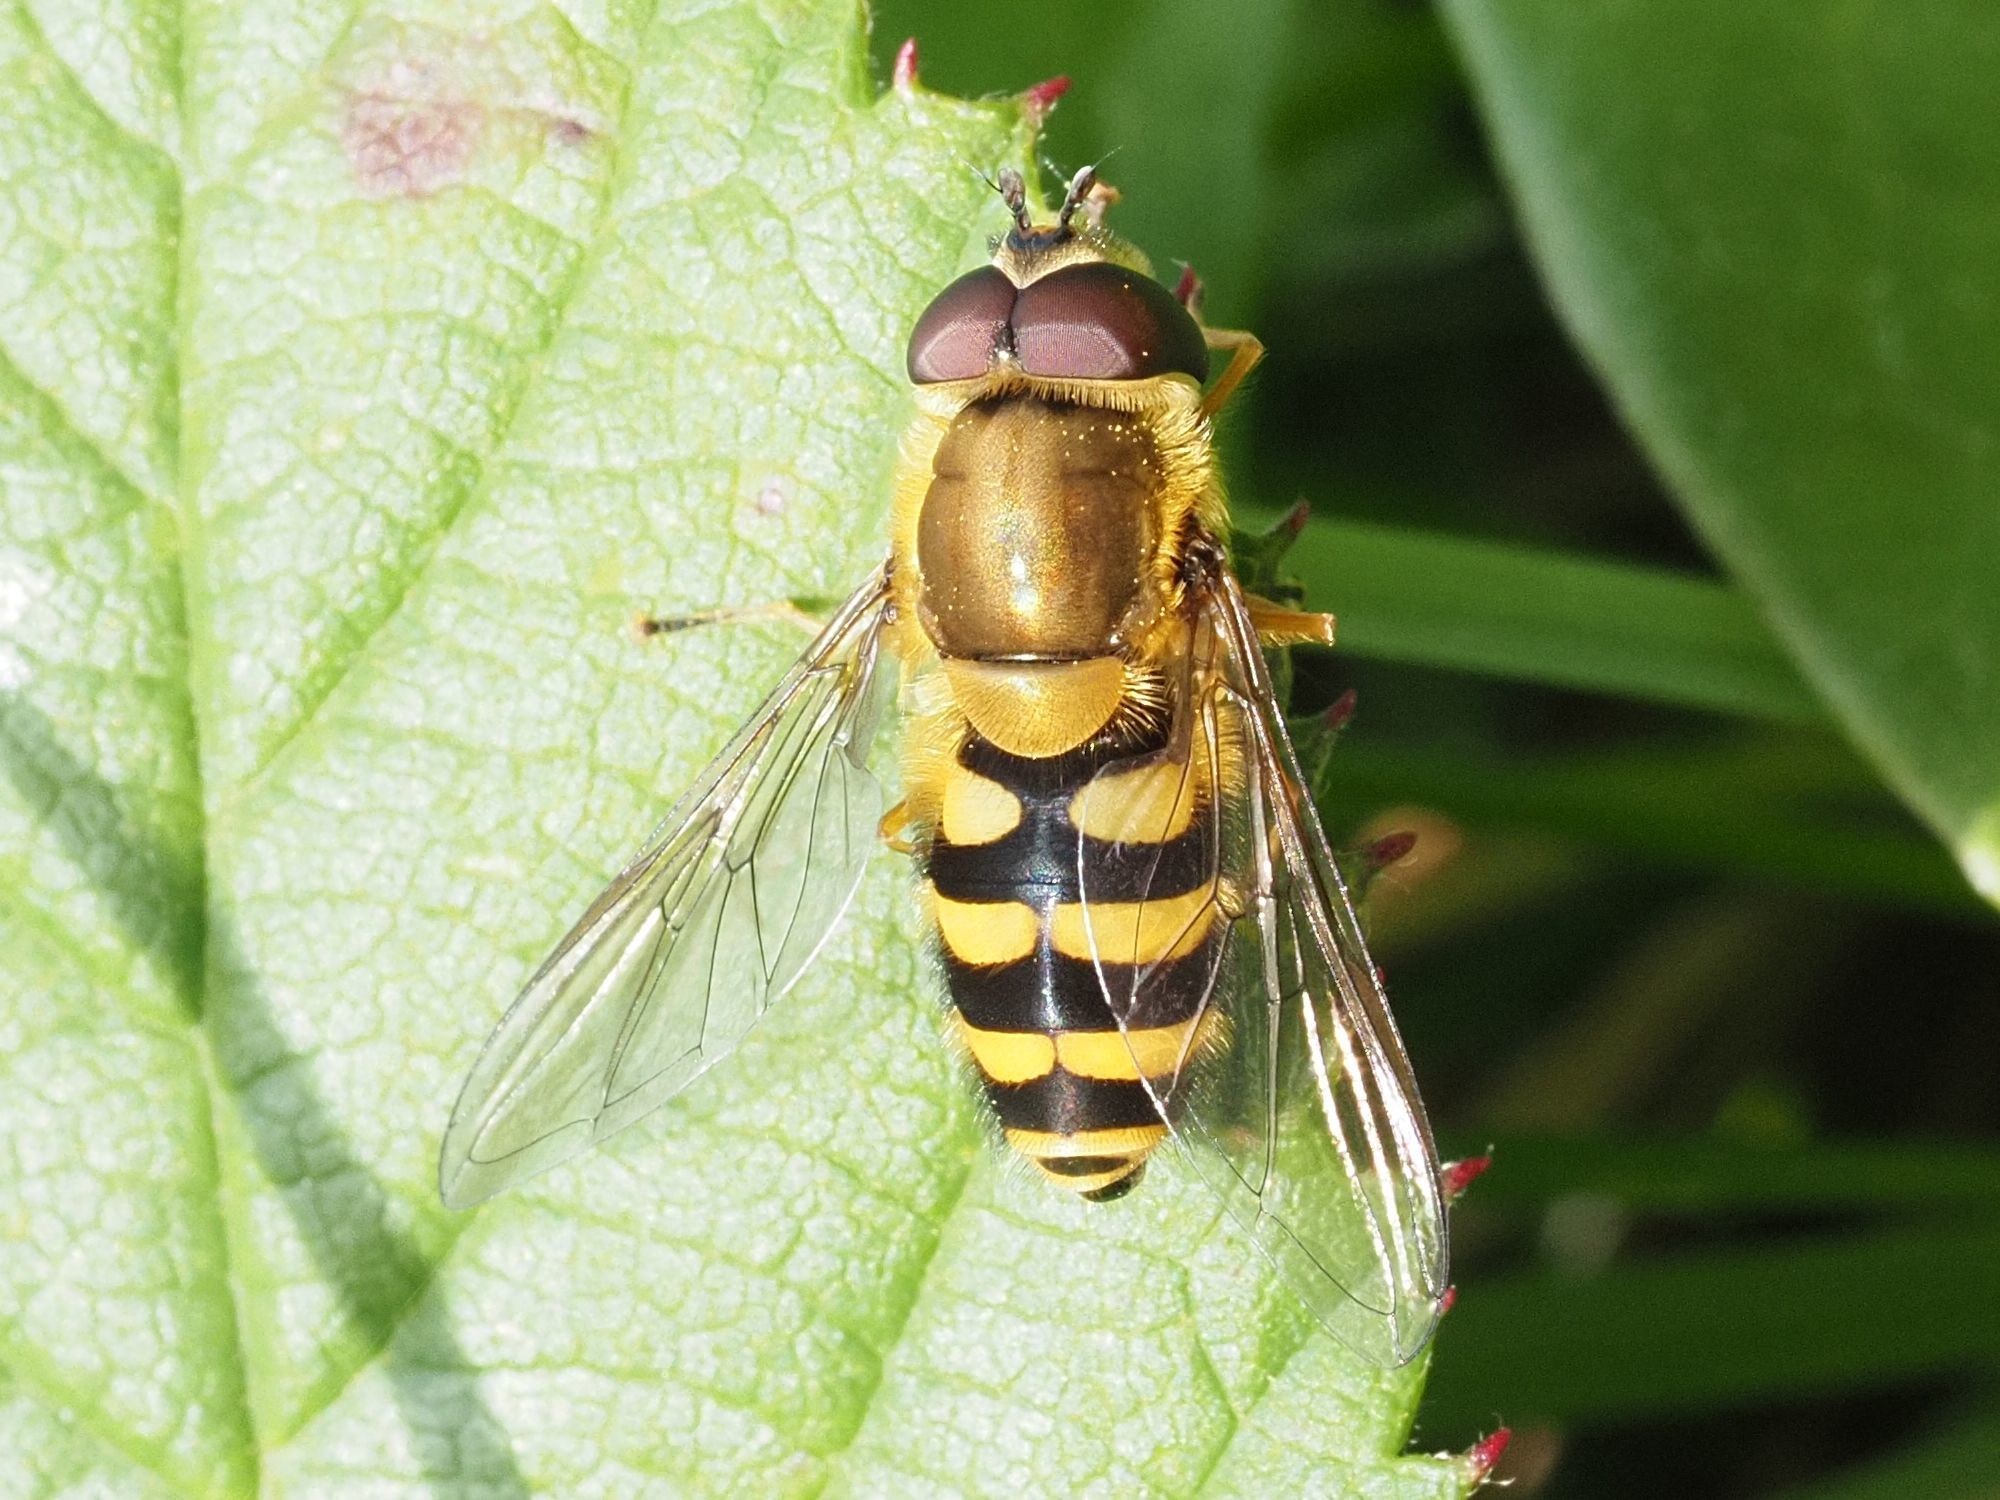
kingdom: Animalia
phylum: Arthropoda
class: Insecta
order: Diptera
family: Syrphidae
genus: Syrphus
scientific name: Syrphus
